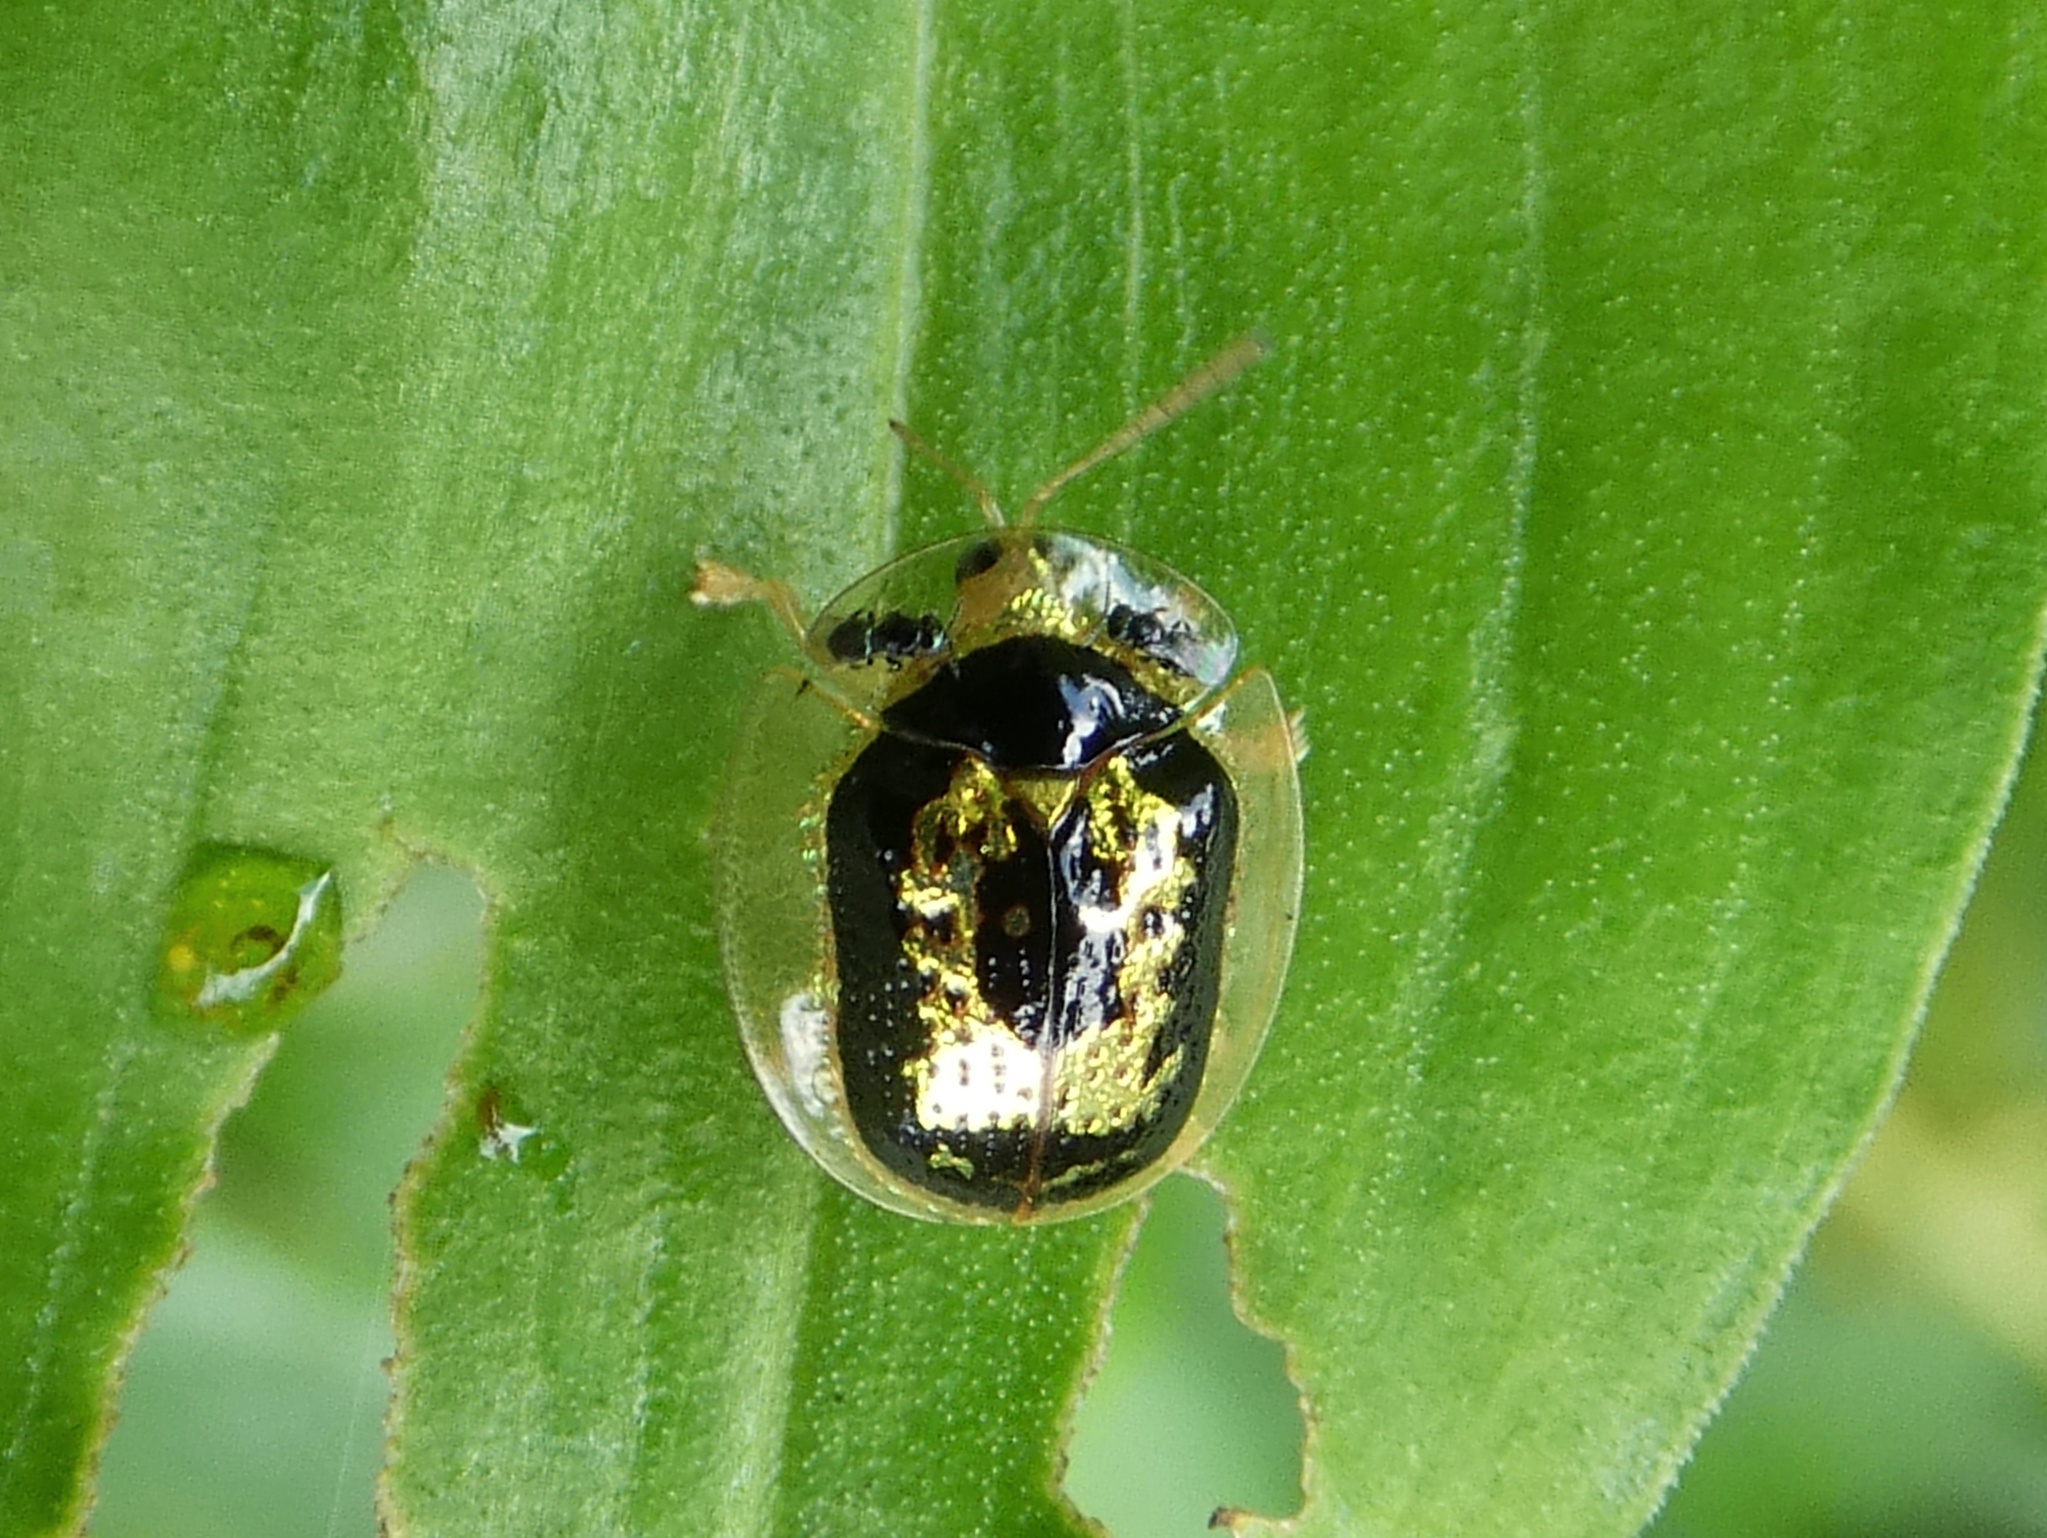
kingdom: Animalia
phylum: Arthropoda
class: Insecta
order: Coleoptera
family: Chrysomelidae
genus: Microctenochira
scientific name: Microctenochira panamensis
